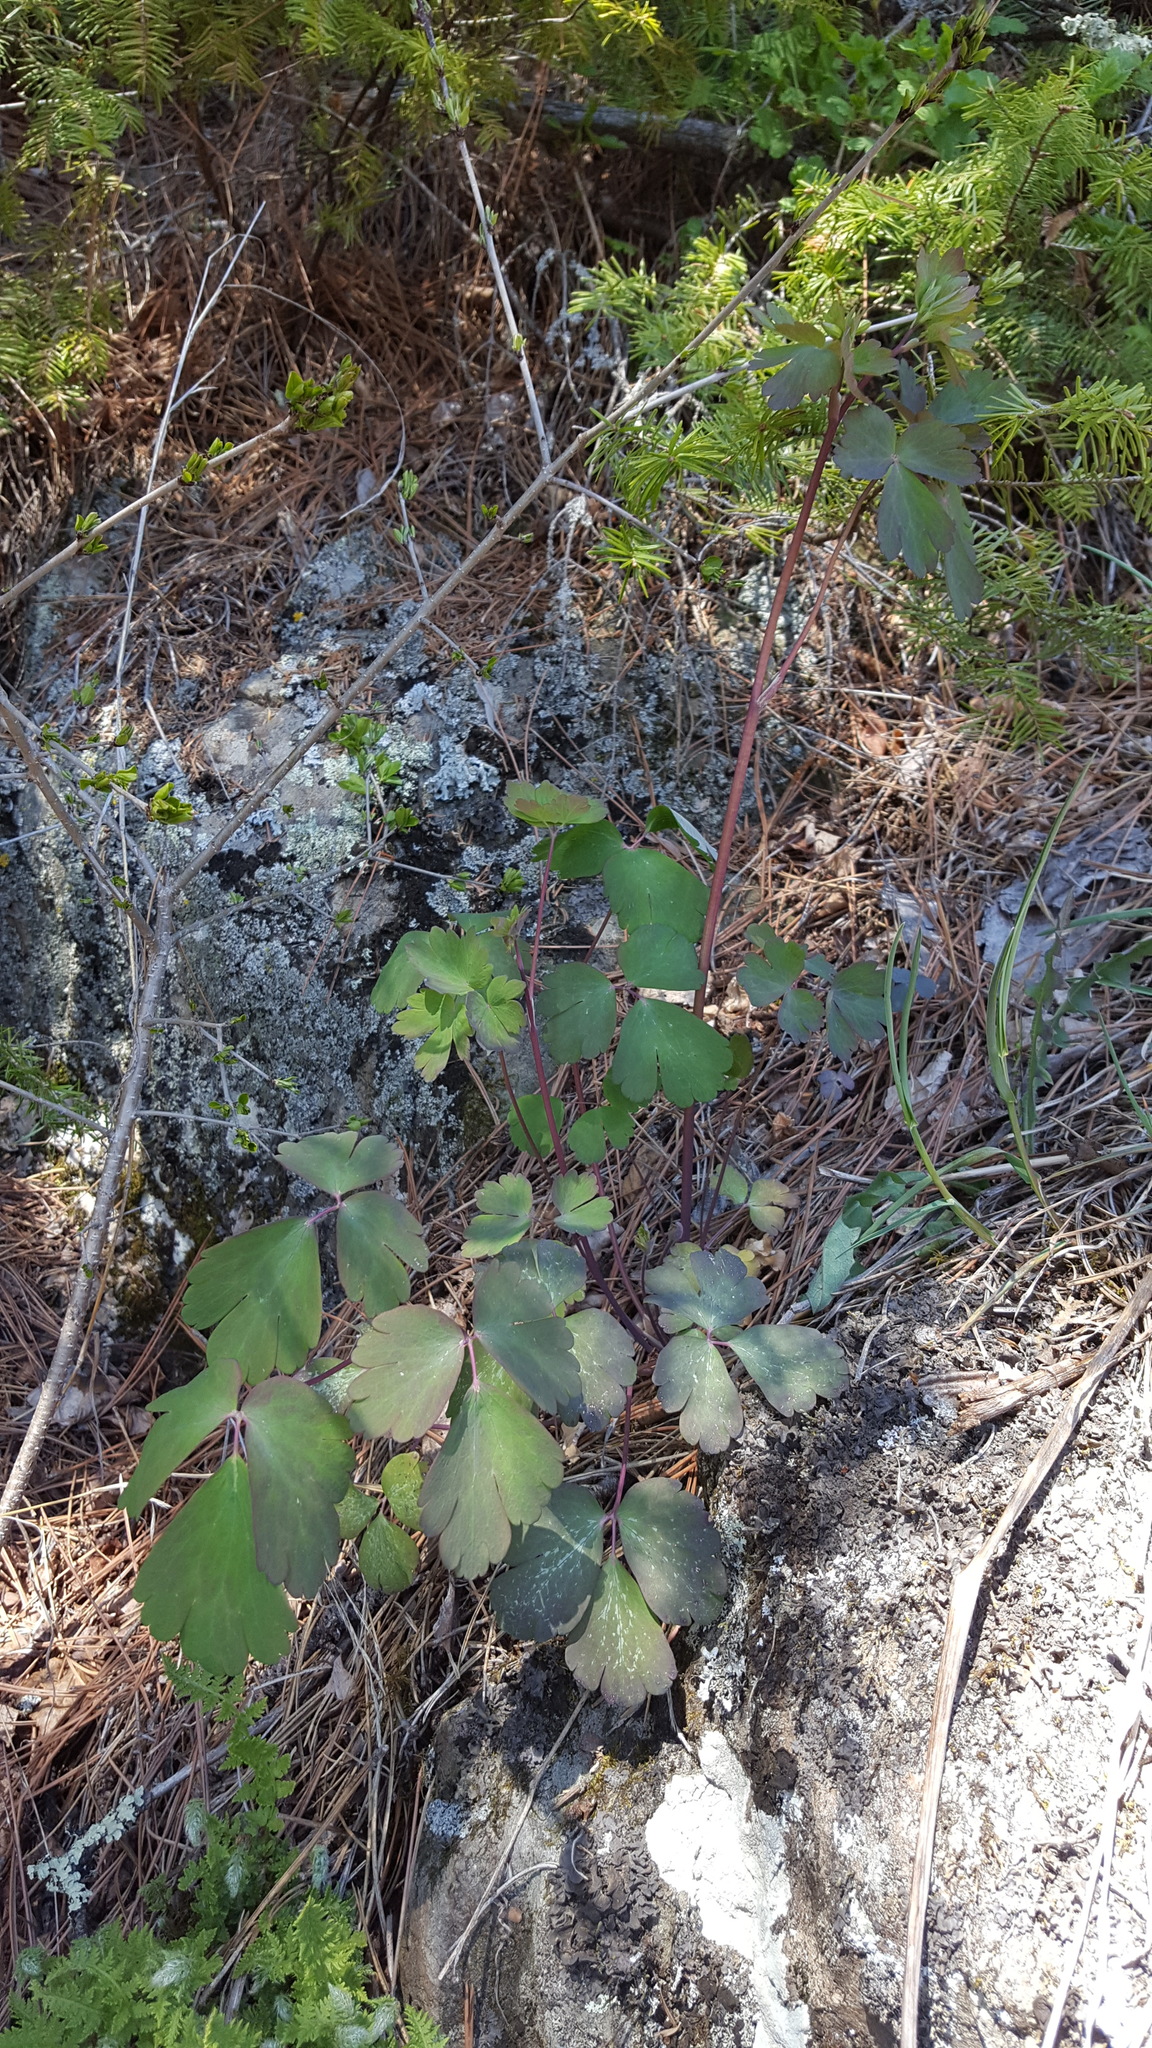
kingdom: Plantae
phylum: Tracheophyta
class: Magnoliopsida
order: Ranunculales
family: Ranunculaceae
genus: Aquilegia
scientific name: Aquilegia canadensis
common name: American columbine
